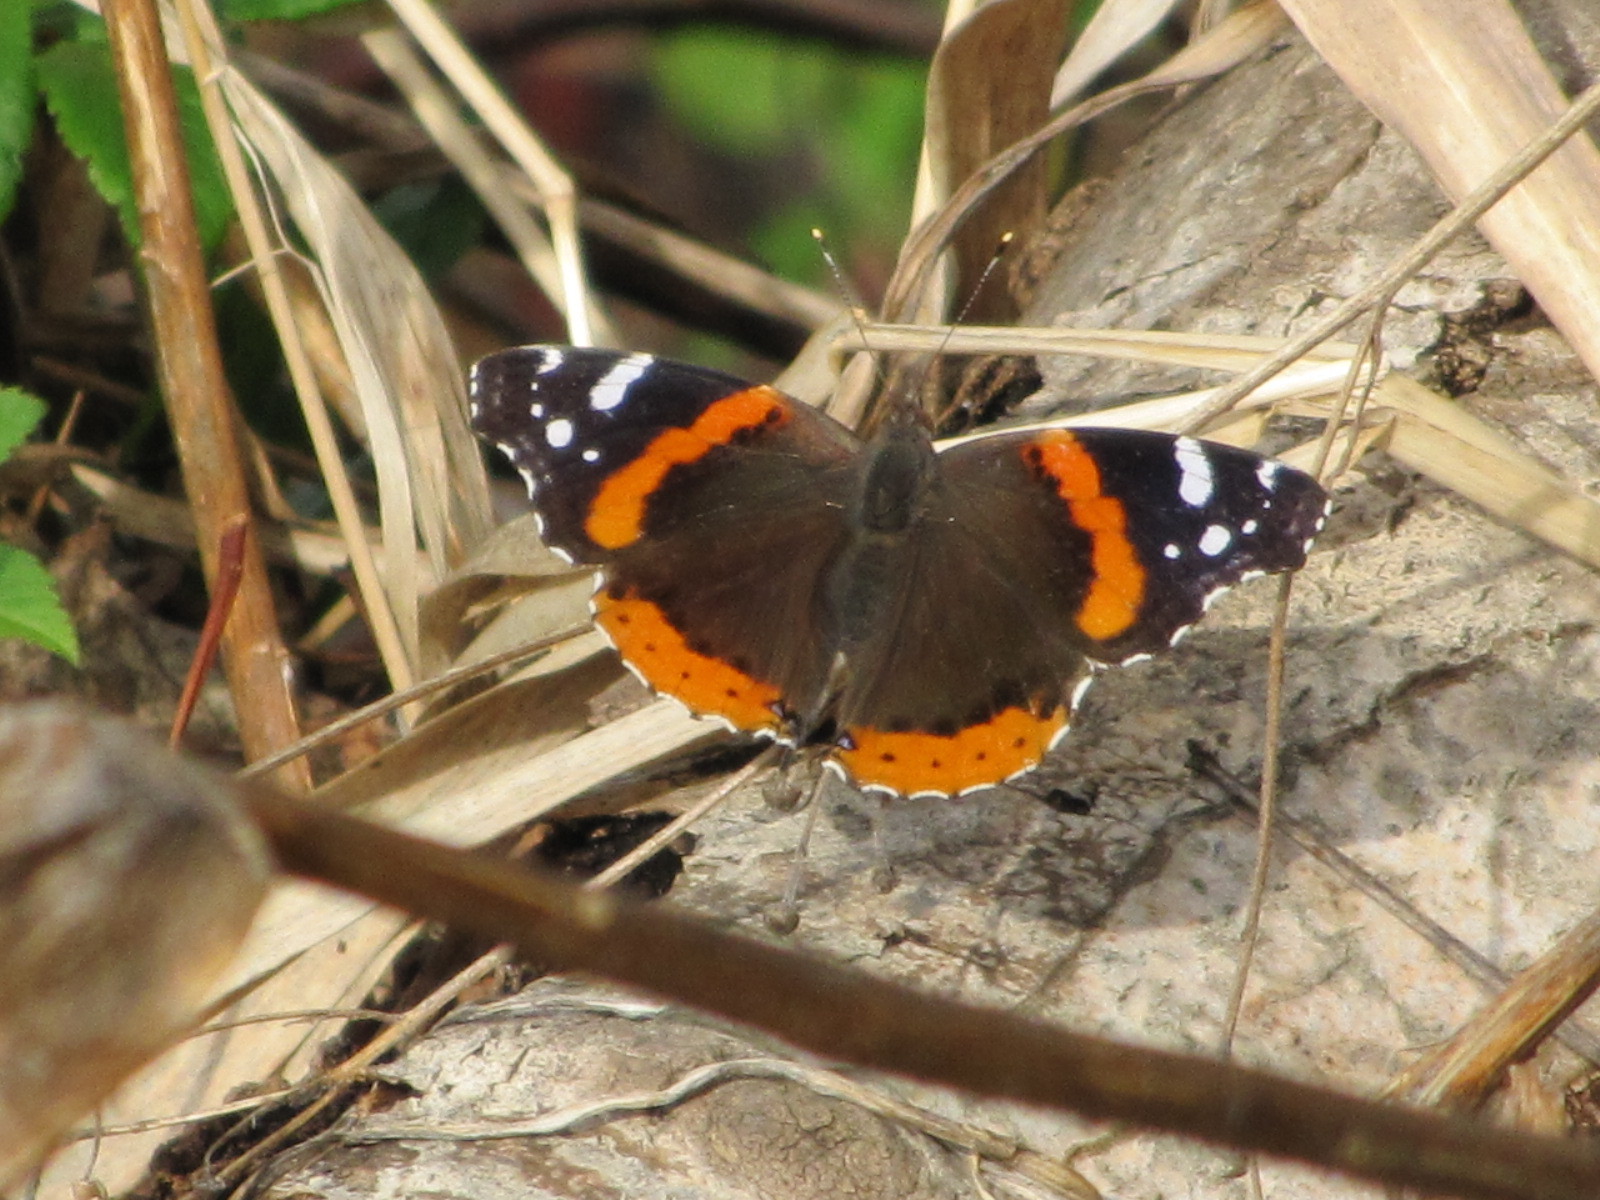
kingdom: Animalia
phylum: Arthropoda
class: Insecta
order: Lepidoptera
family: Nymphalidae
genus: Vanessa
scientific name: Vanessa atalanta
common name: Red admiral
